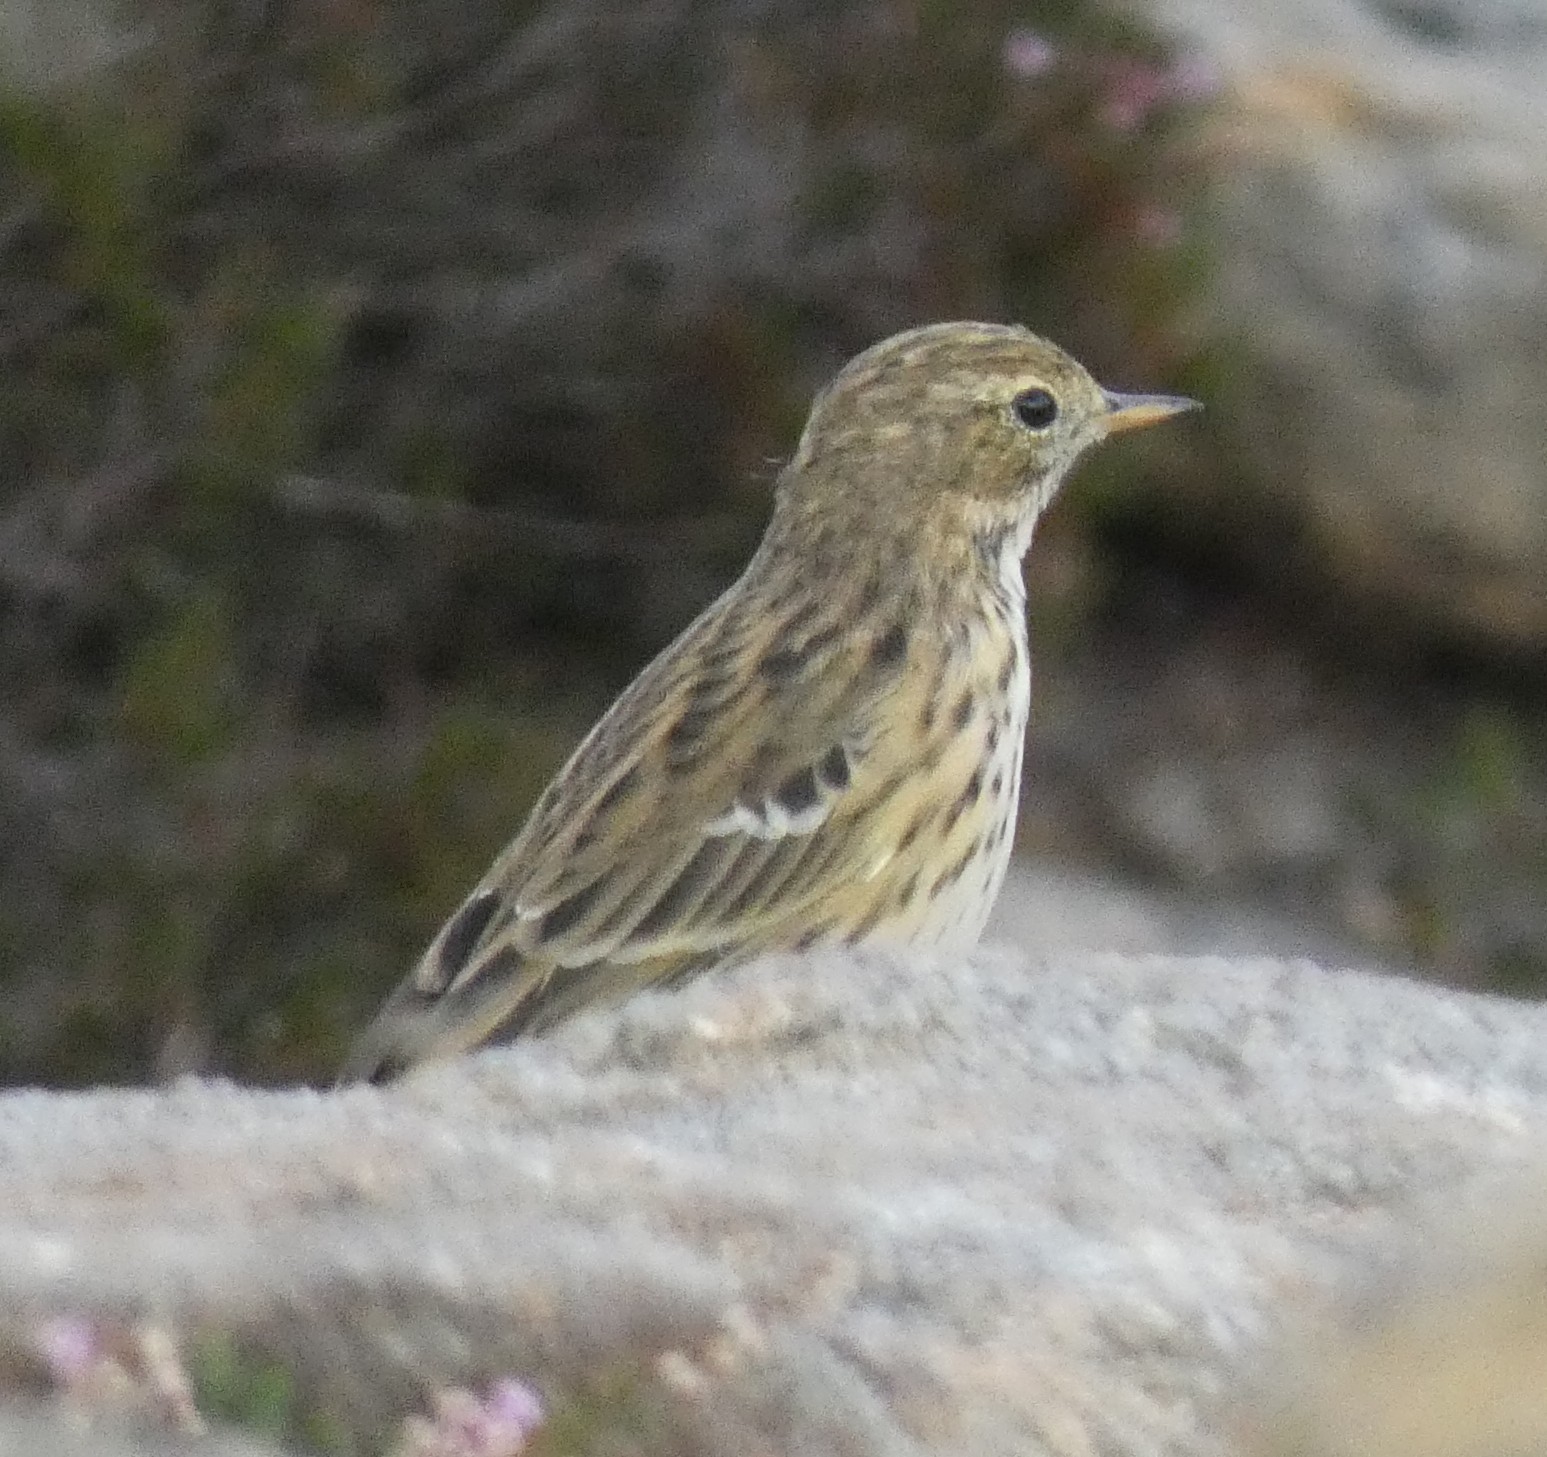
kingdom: Animalia
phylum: Chordata
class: Aves
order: Passeriformes
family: Motacillidae
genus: Anthus
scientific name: Anthus pratensis
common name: Meadow pipit
